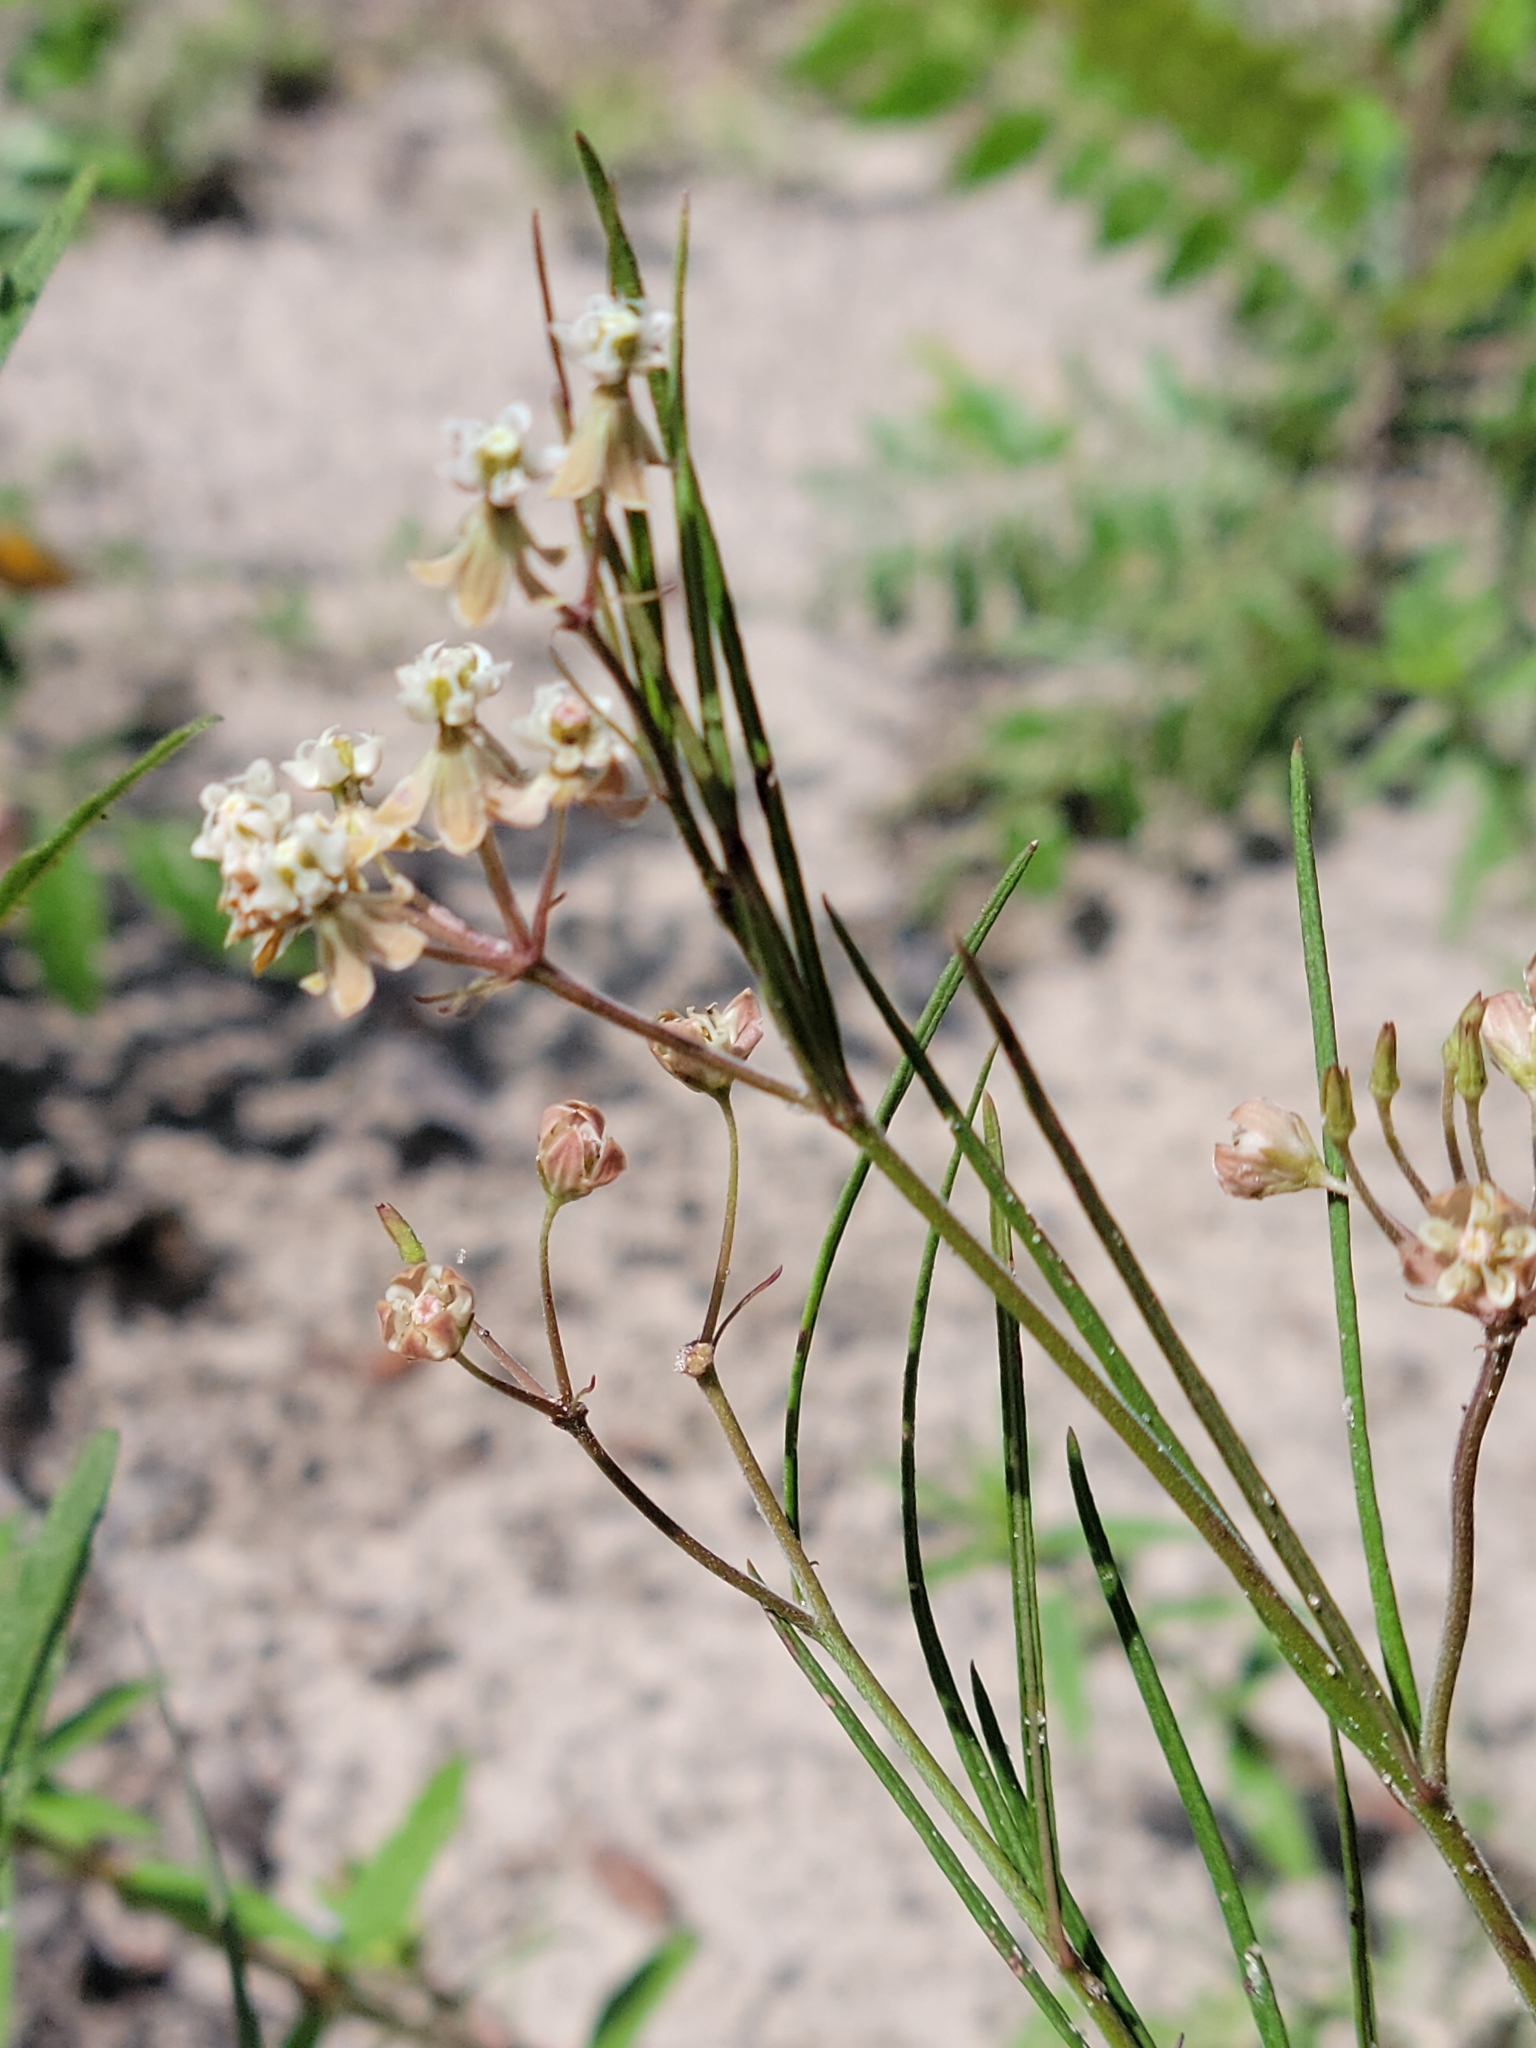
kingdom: Plantae
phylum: Tracheophyta
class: Magnoliopsida
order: Gentianales
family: Apocynaceae
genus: Asclepias
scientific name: Asclepias verticillata
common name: Eastern whorled milkweed
